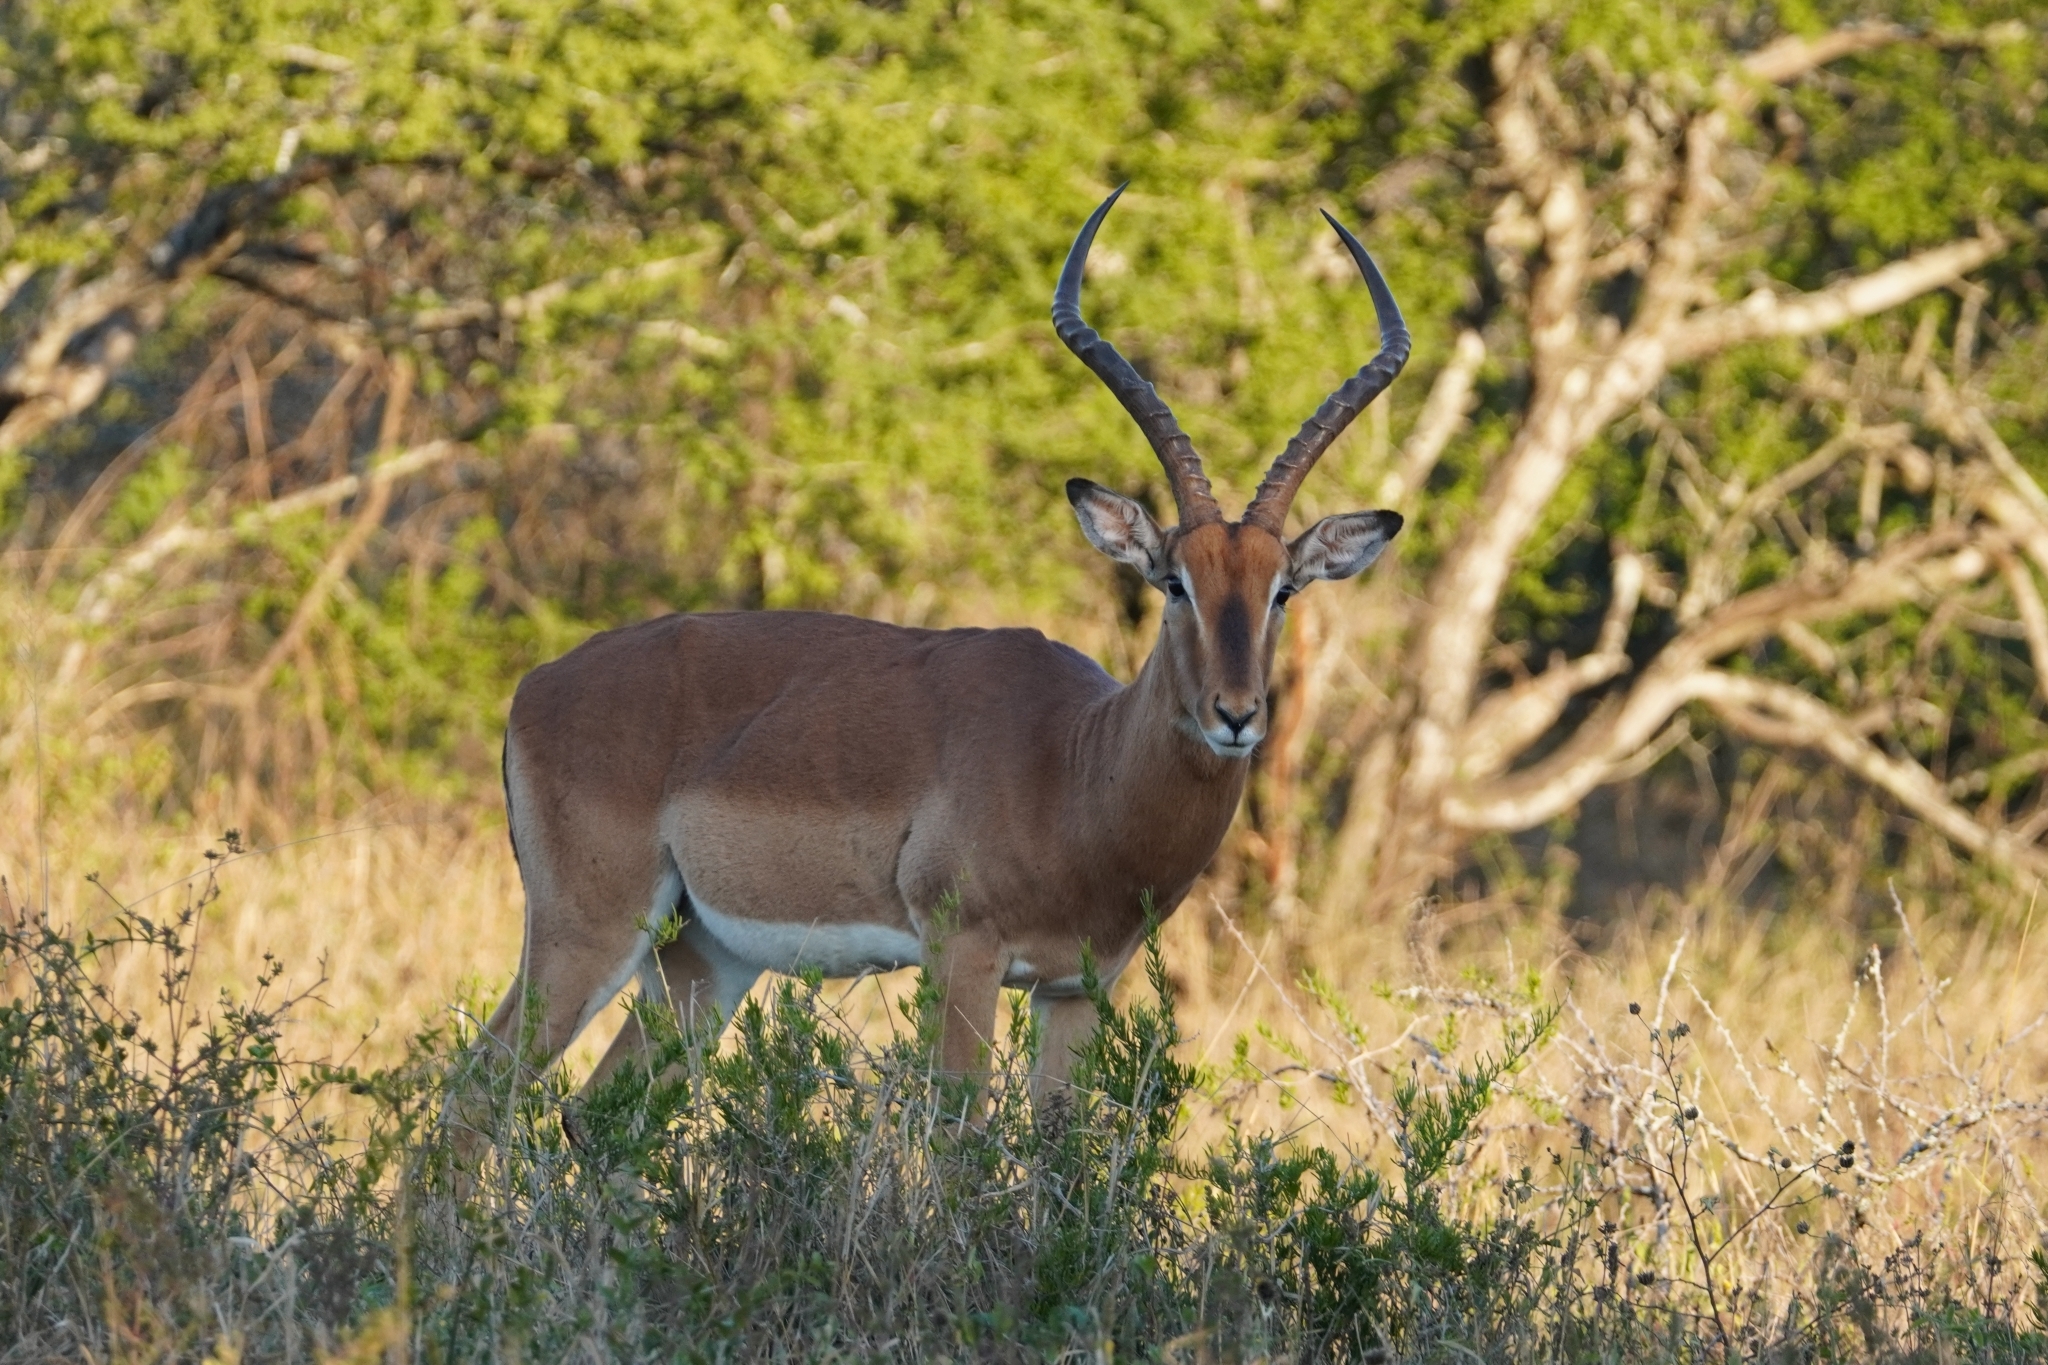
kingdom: Animalia
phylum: Chordata
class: Mammalia
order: Artiodactyla
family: Bovidae
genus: Aepyceros
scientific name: Aepyceros melampus
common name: Impala
